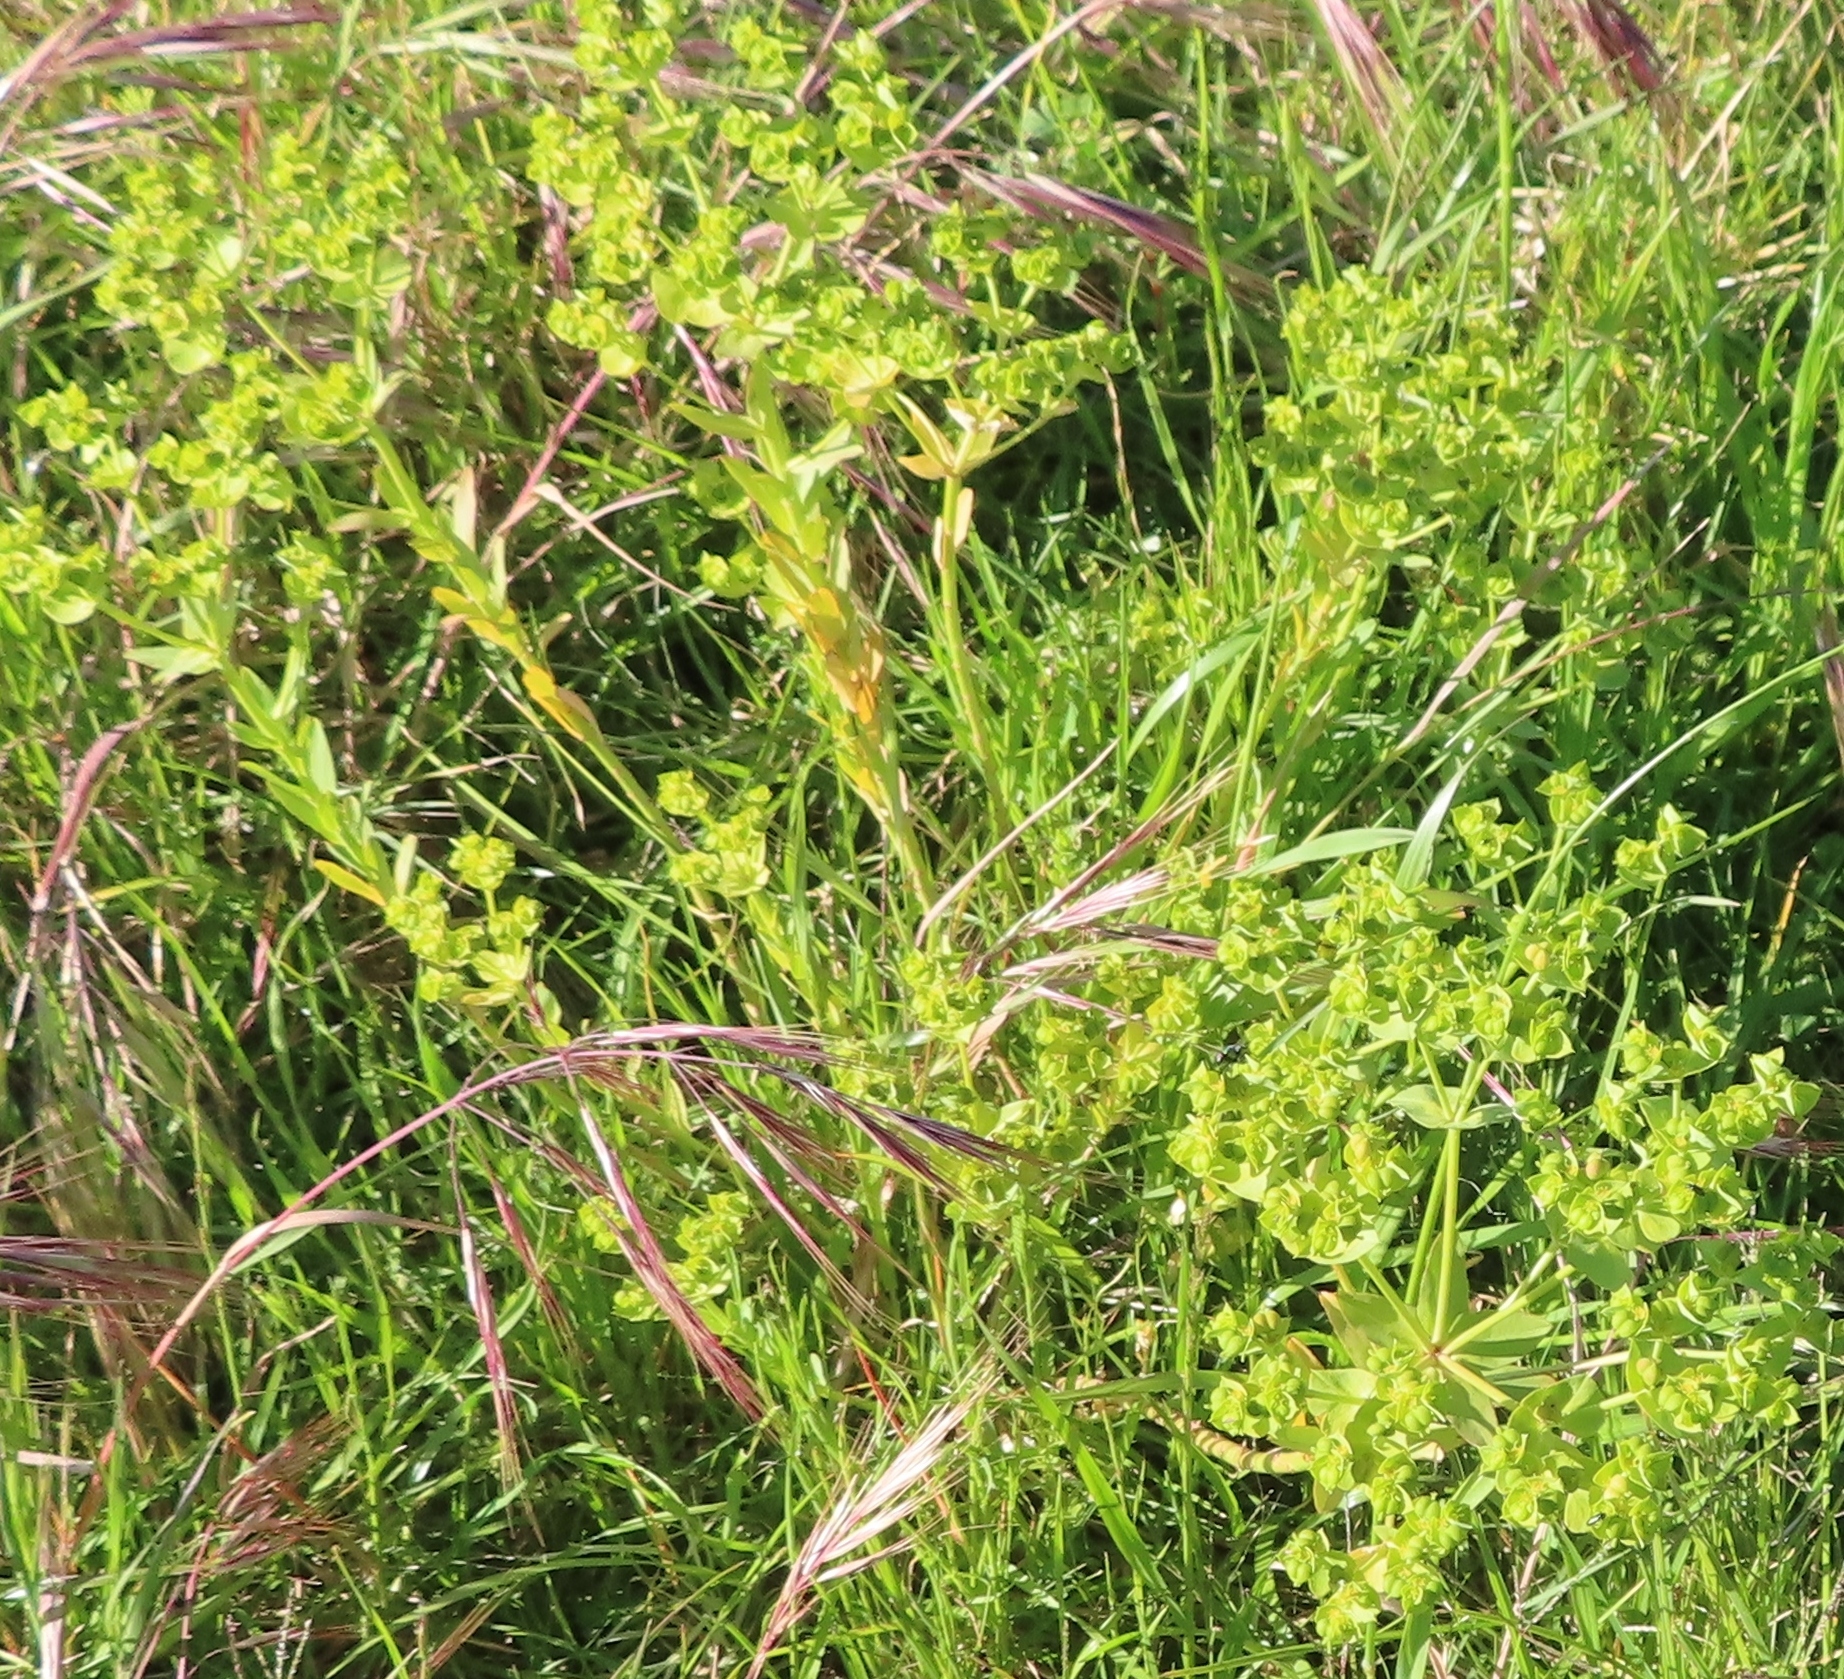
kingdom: Plantae
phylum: Tracheophyta
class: Magnoliopsida
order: Malpighiales
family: Euphorbiaceae
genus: Euphorbia
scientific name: Euphorbia terracina
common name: Geraldton carnation weed
